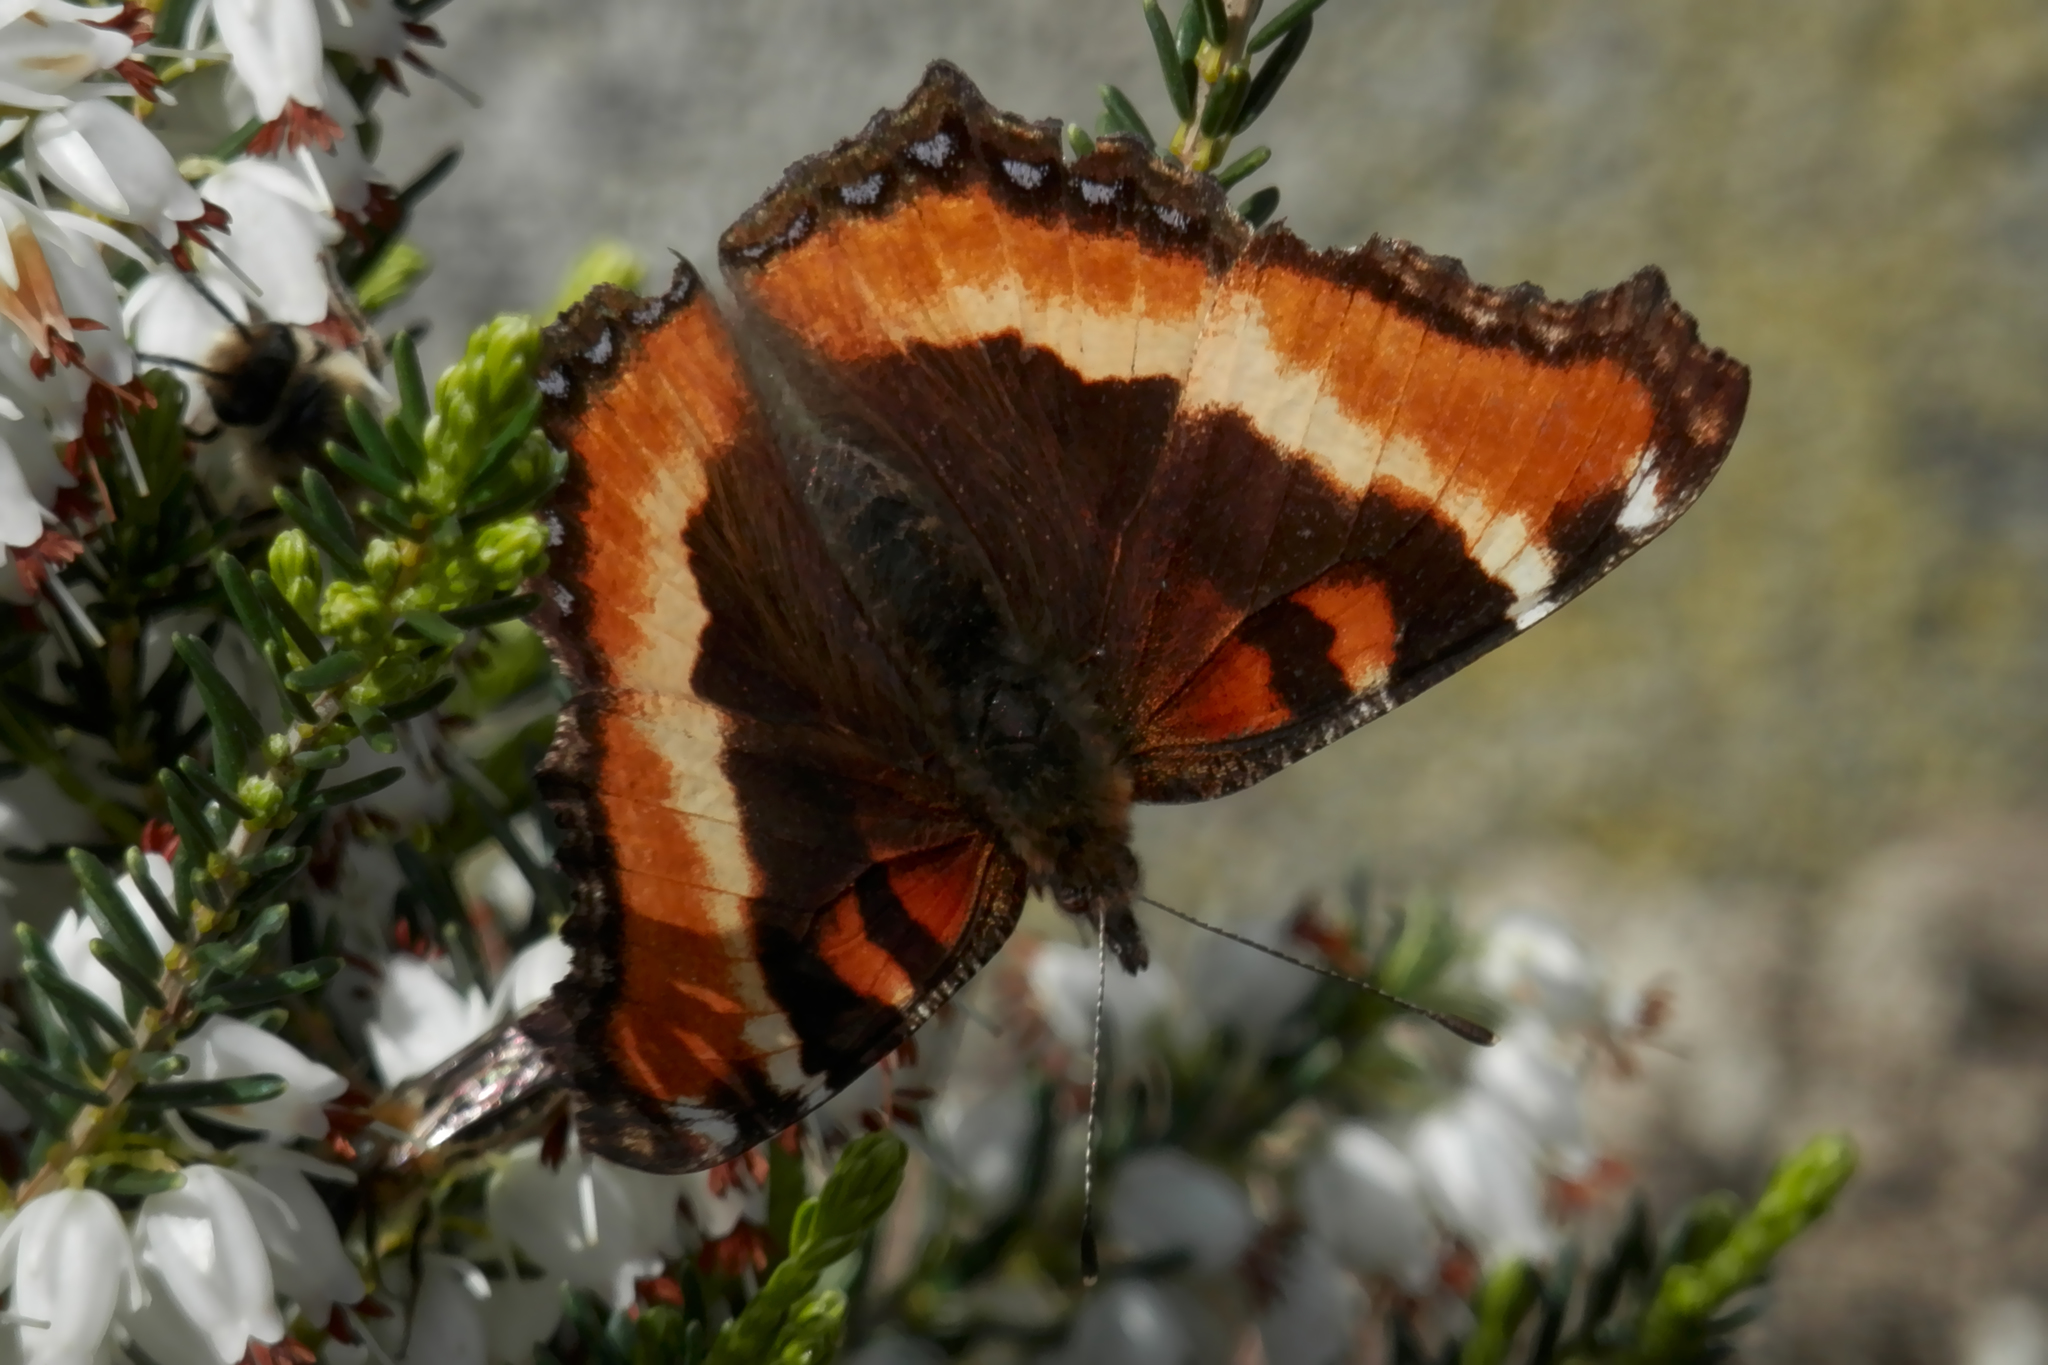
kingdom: Animalia
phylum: Arthropoda
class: Insecta
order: Lepidoptera
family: Nymphalidae
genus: Aglais
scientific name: Aglais milberti
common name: Milbert's tortoiseshell
